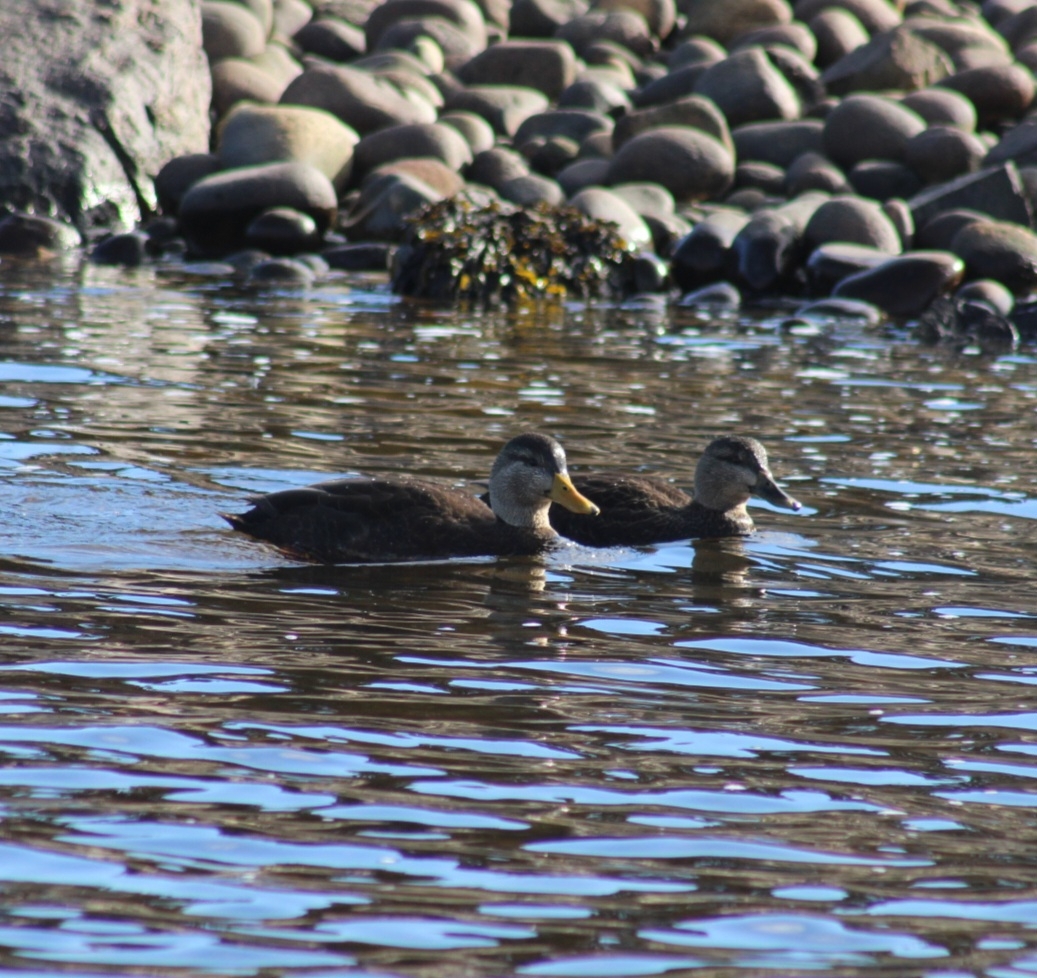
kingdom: Animalia
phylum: Chordata
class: Aves
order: Anseriformes
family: Anatidae
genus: Anas
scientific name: Anas rubripes
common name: American black duck
